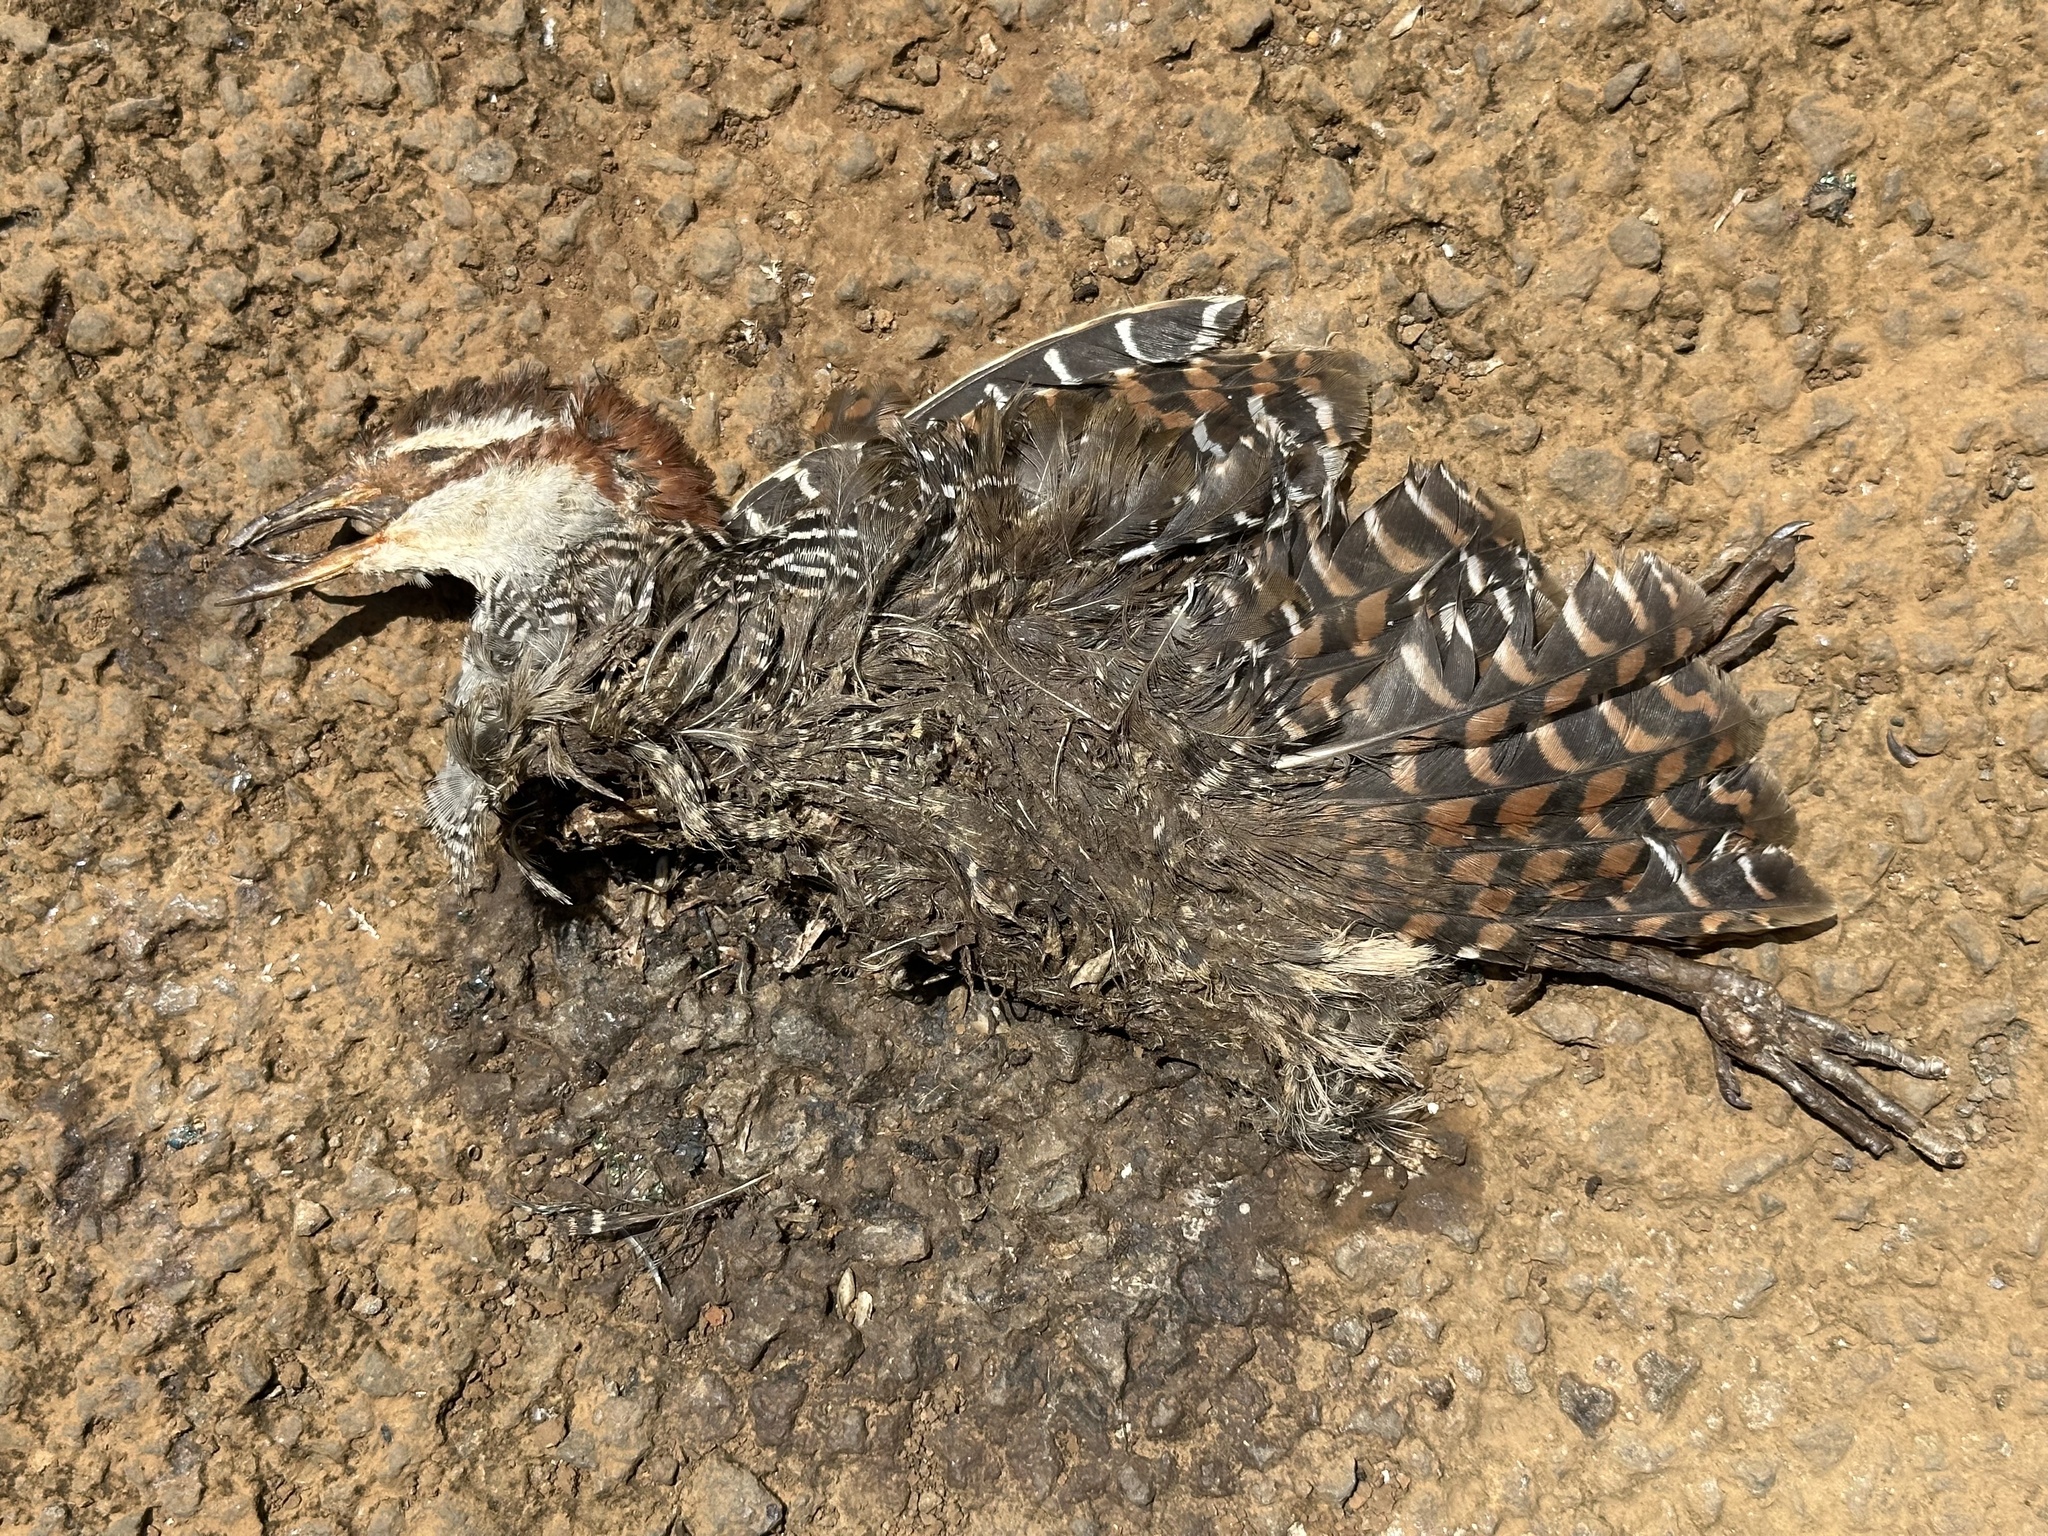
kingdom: Animalia
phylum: Chordata
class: Aves
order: Gruiformes
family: Rallidae
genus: Gallirallus
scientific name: Gallirallus philippensis
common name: Buff-banded rail
